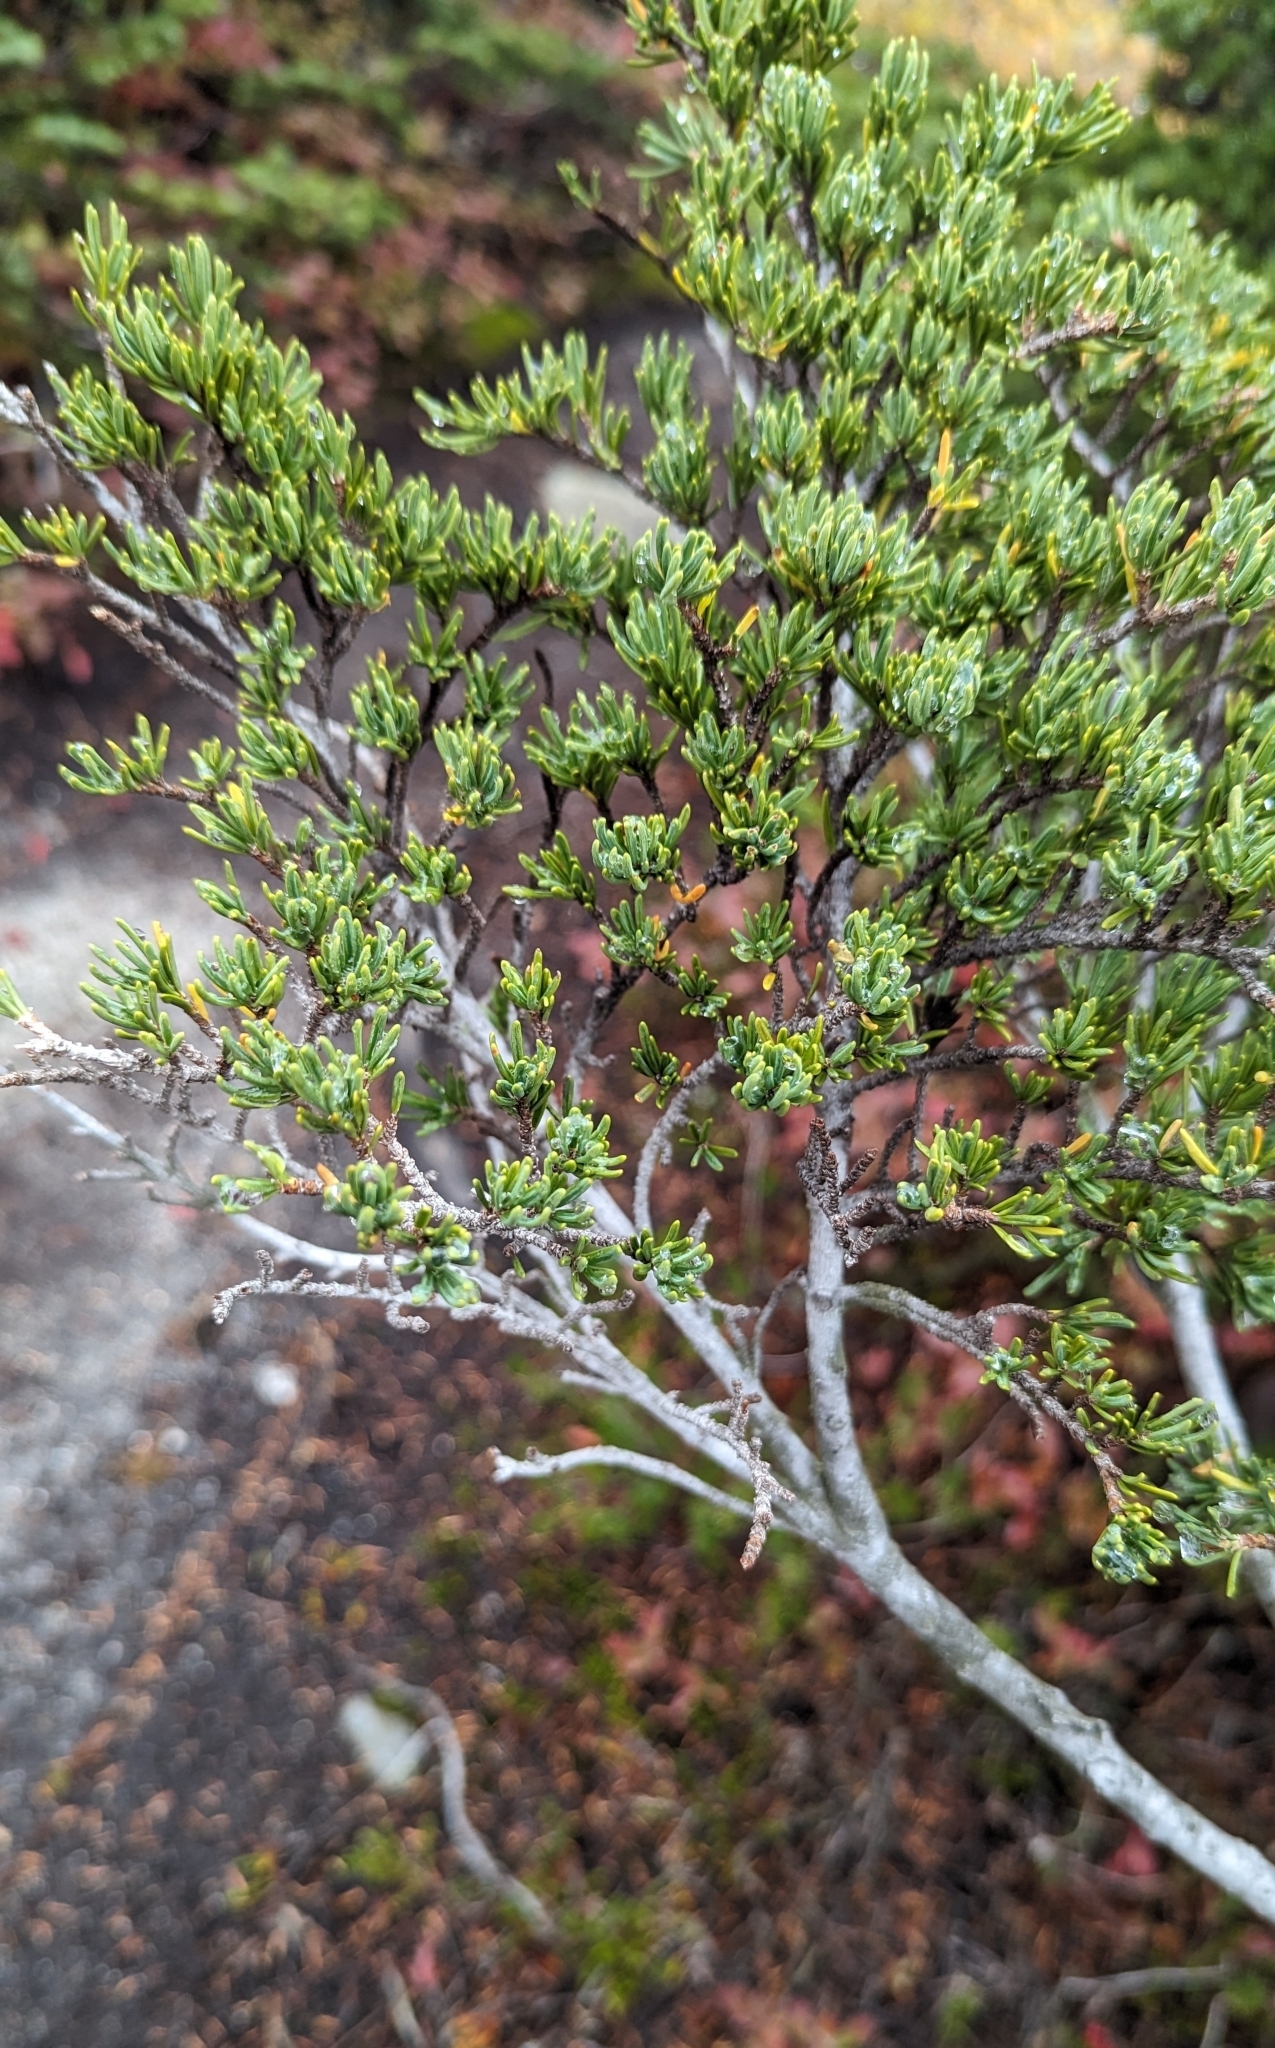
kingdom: Plantae
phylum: Tracheophyta
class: Pinopsida
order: Pinales
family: Pinaceae
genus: Tsuga
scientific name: Tsuga mertensiana
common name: Mountain hemlock
